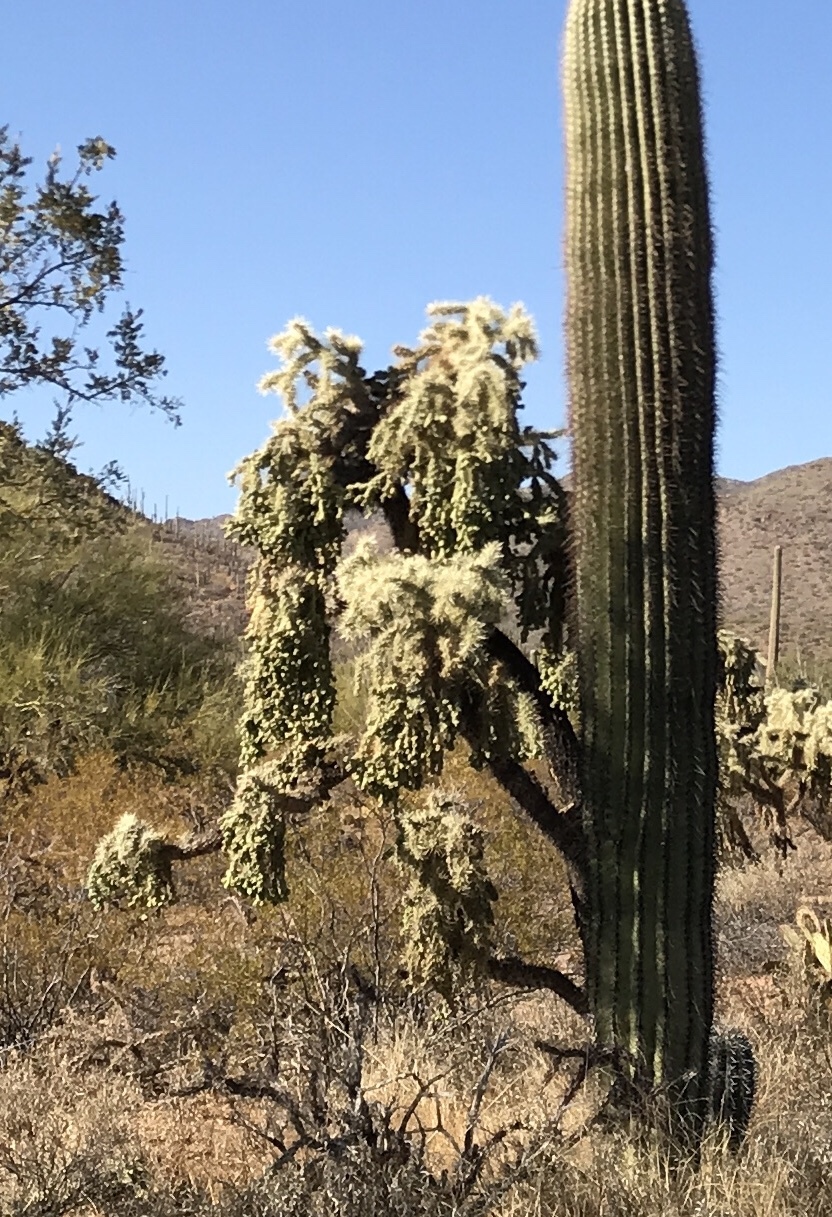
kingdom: Plantae
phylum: Tracheophyta
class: Magnoliopsida
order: Caryophyllales
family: Cactaceae
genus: Cylindropuntia
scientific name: Cylindropuntia fulgida
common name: Jumping cholla
